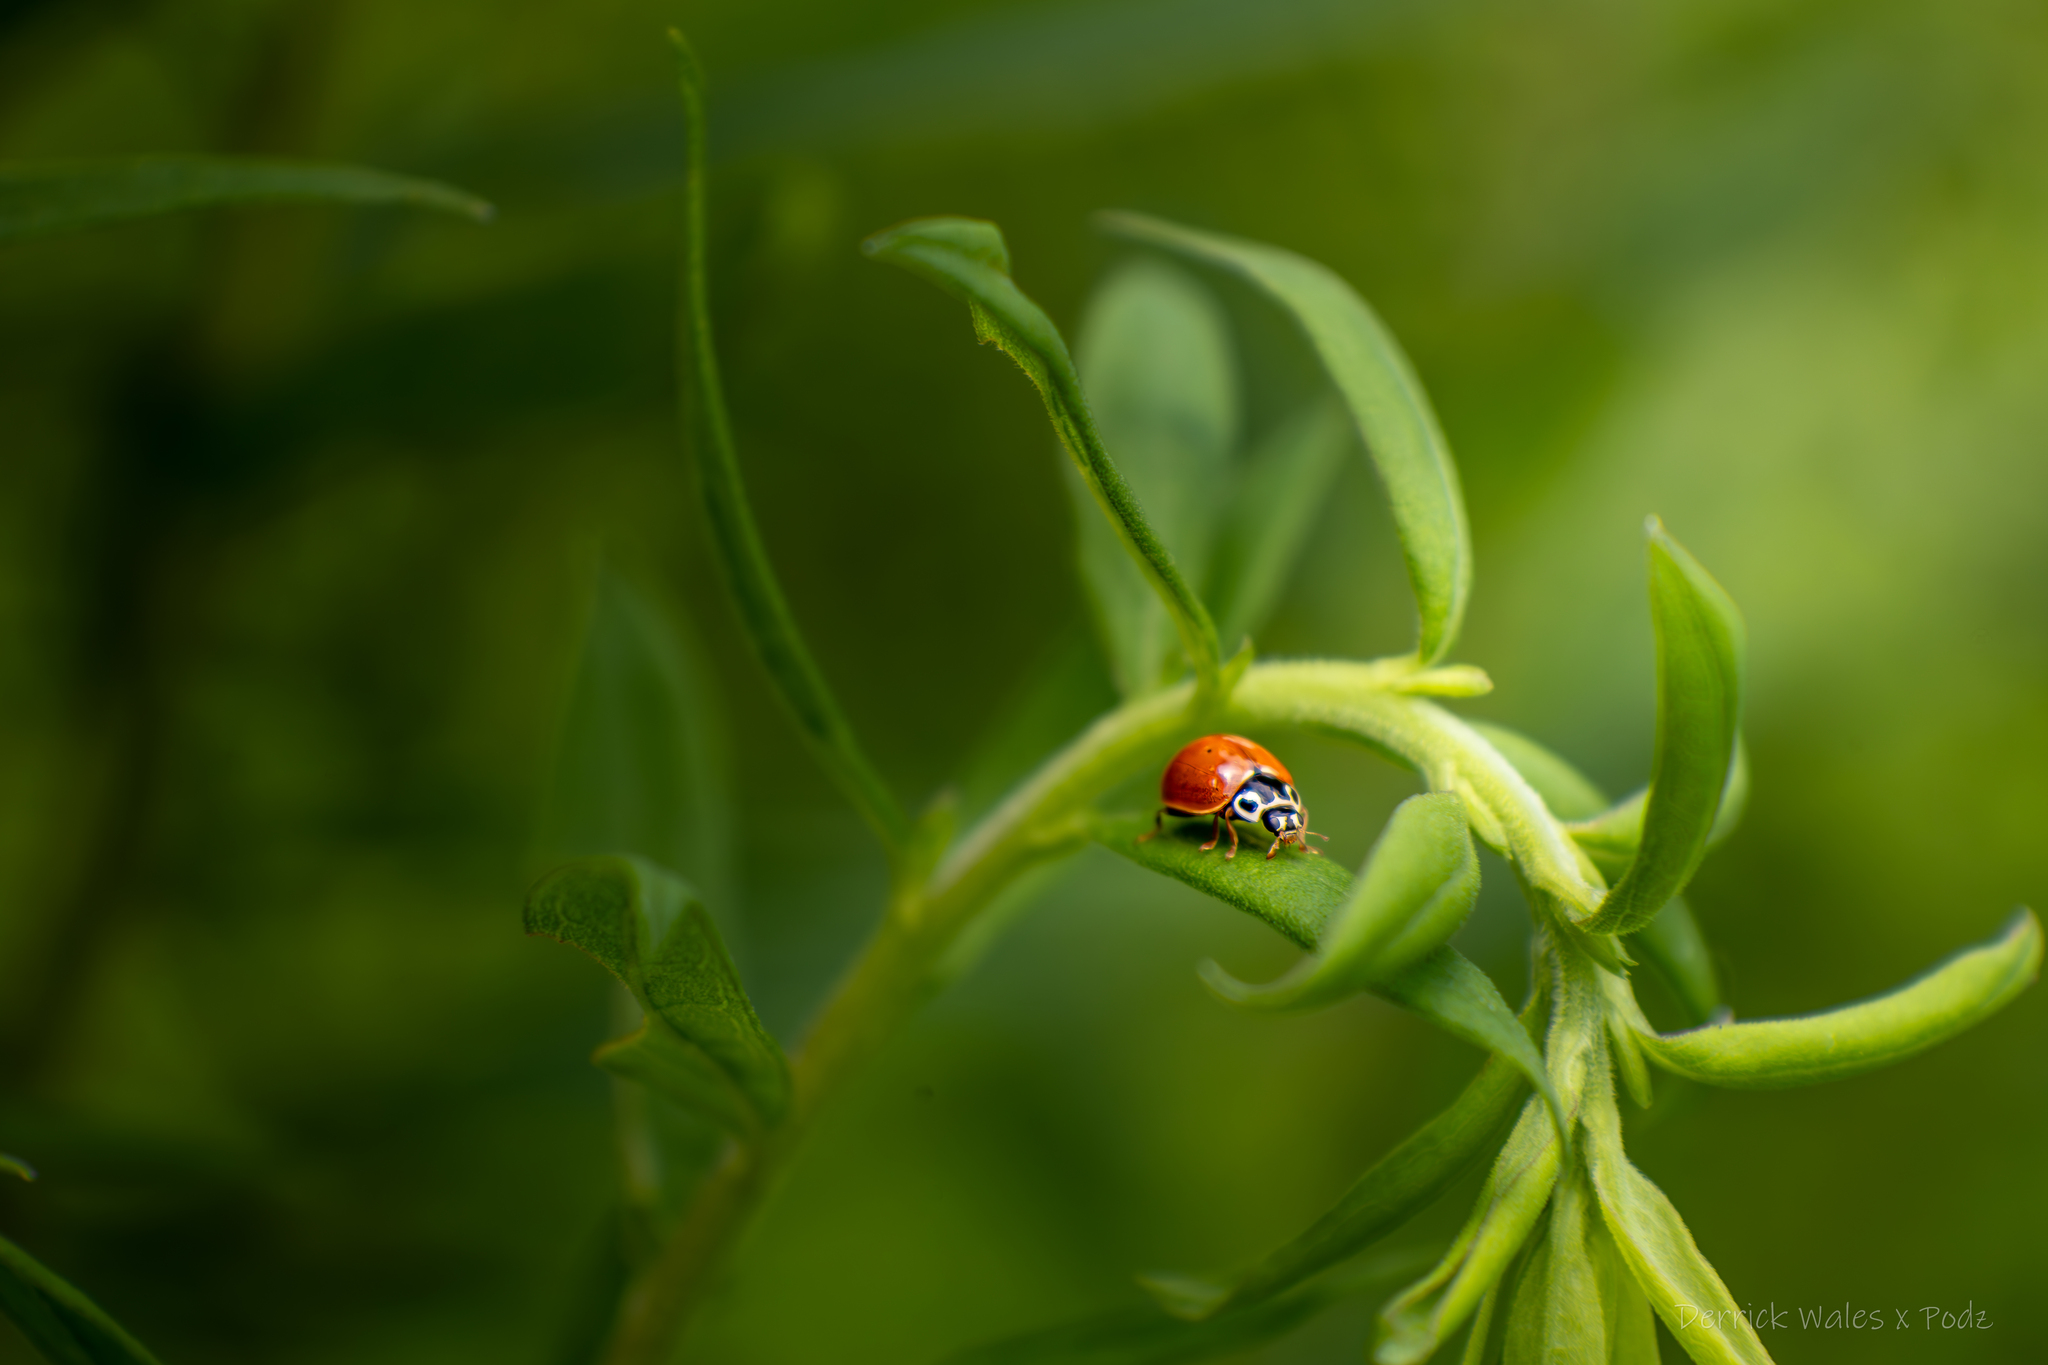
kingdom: Animalia
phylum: Arthropoda
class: Insecta
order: Coleoptera
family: Coccinellidae
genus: Cycloneda
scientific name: Cycloneda munda
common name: Polished lady beetle
